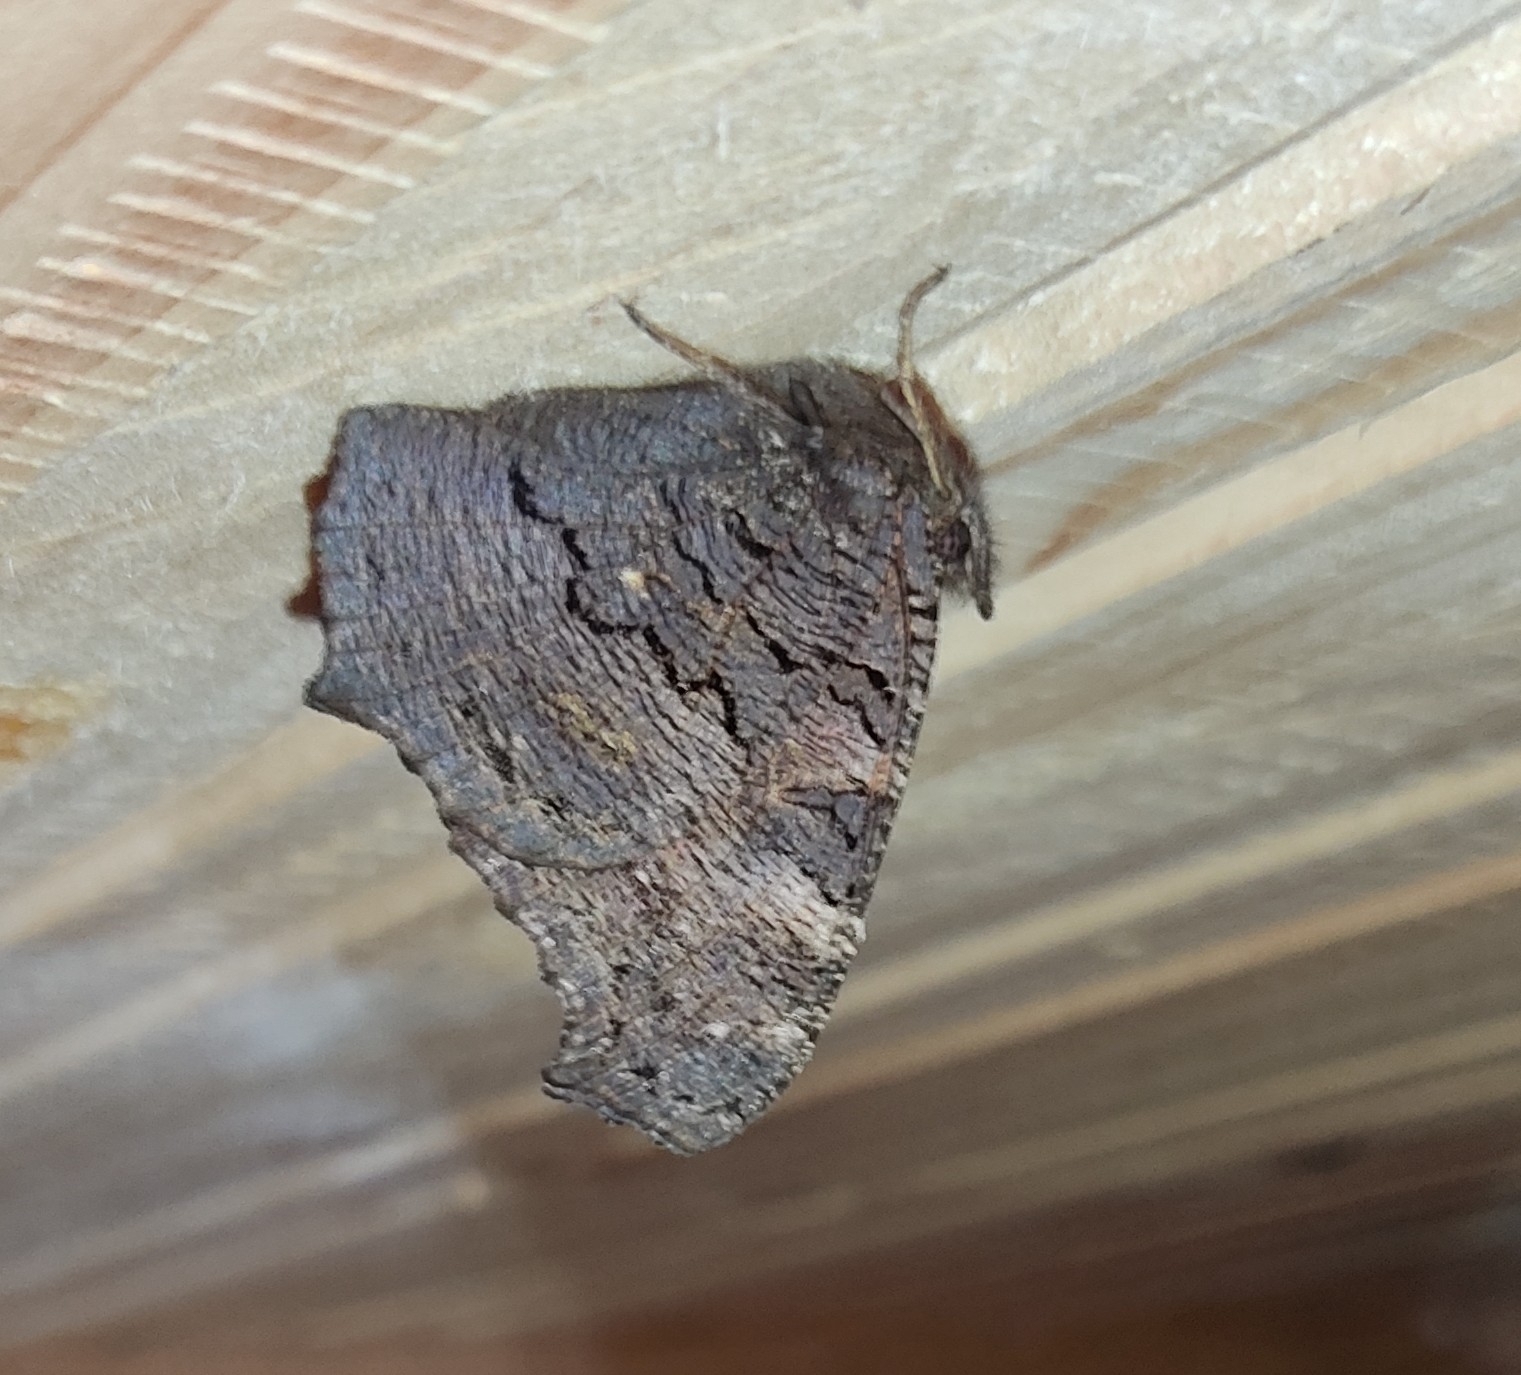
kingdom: Animalia
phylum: Arthropoda
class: Insecta
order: Lepidoptera
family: Nymphalidae
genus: Aglais
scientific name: Aglais io
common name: Peacock
